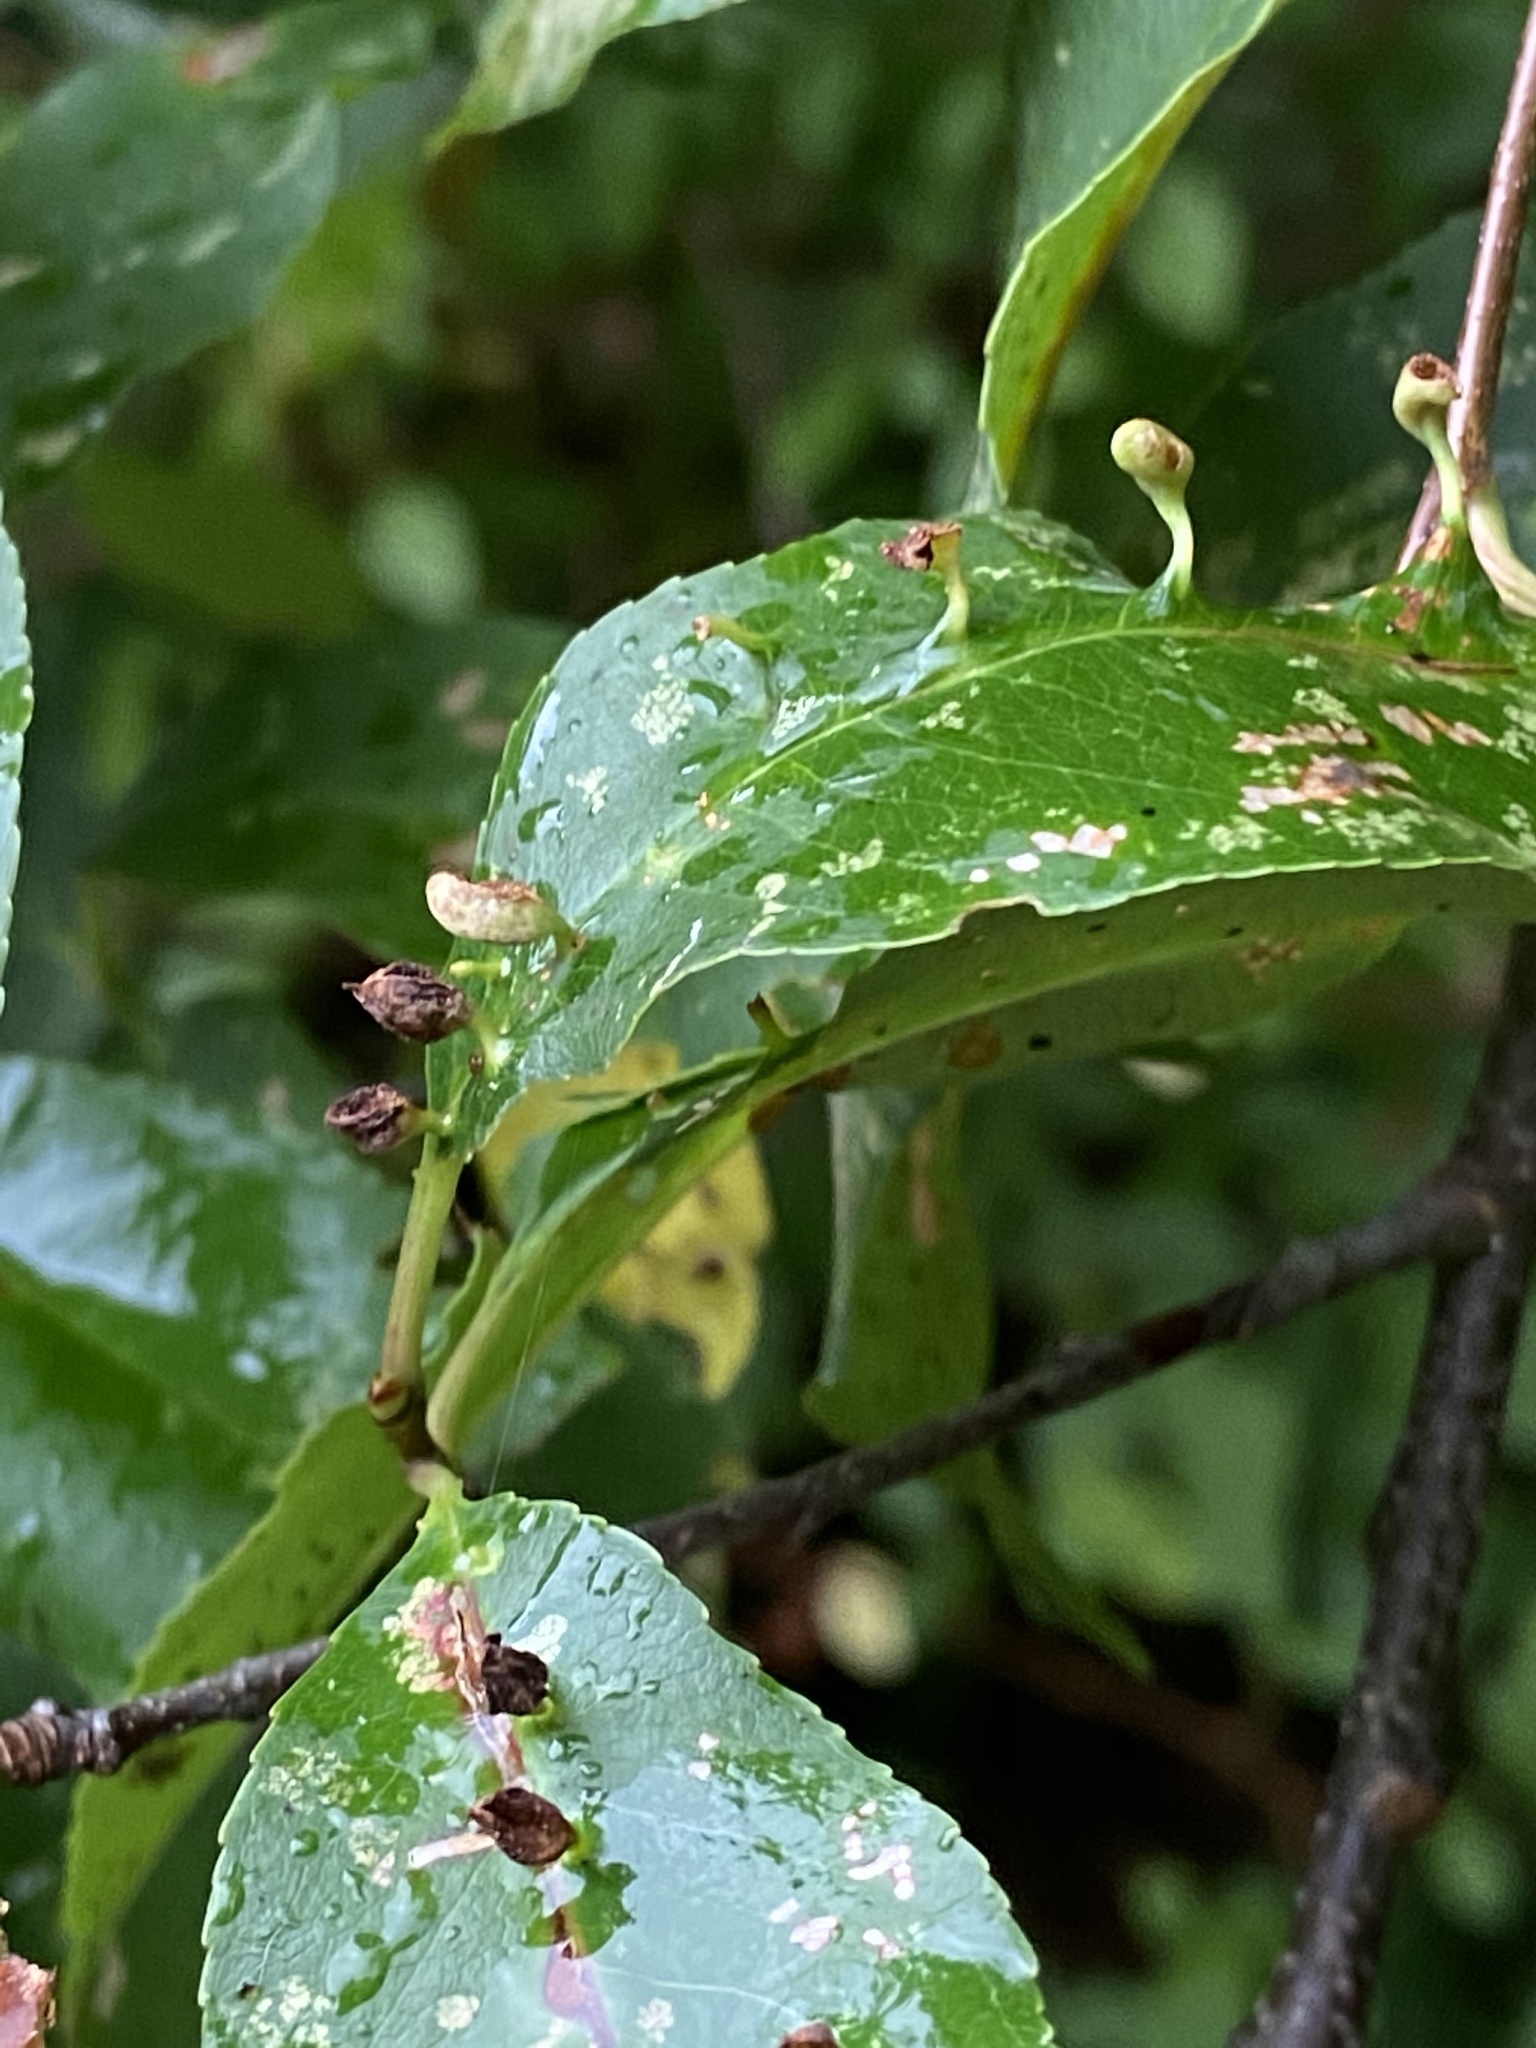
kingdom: Animalia
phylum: Arthropoda
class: Arachnida
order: Trombidiformes
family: Eriophyidae
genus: Eriophyes
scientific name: Eriophyes
